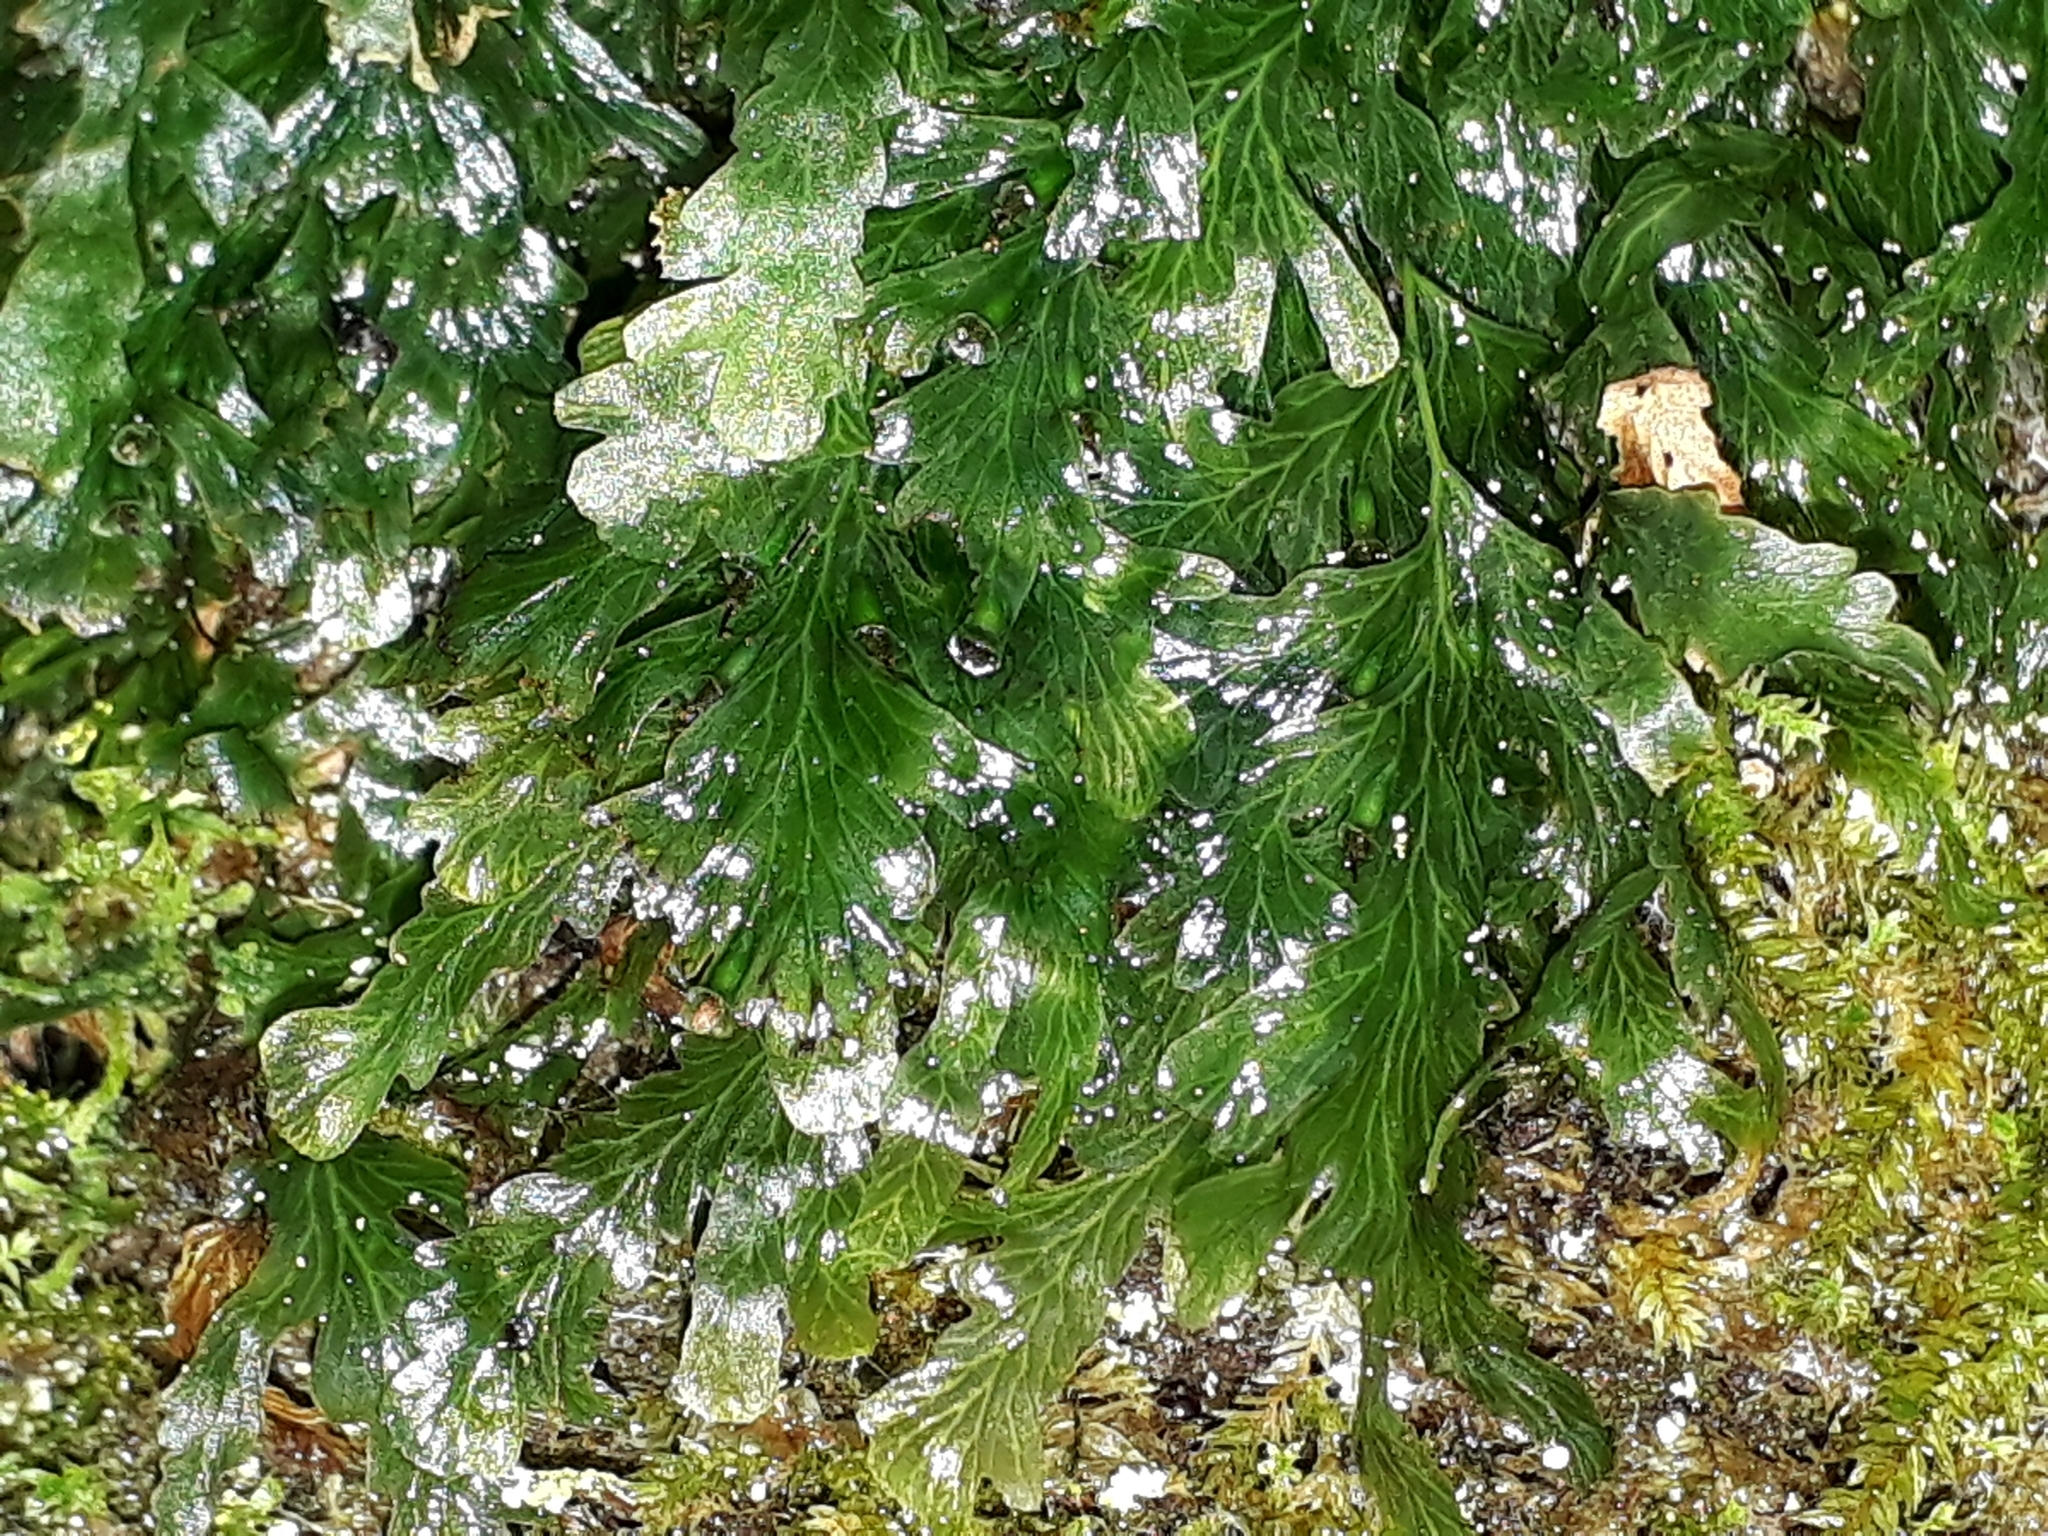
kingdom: Plantae
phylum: Tracheophyta
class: Polypodiopsida
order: Hymenophyllales
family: Hymenophyllaceae
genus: Polyphlebium
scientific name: Polyphlebium venosum
